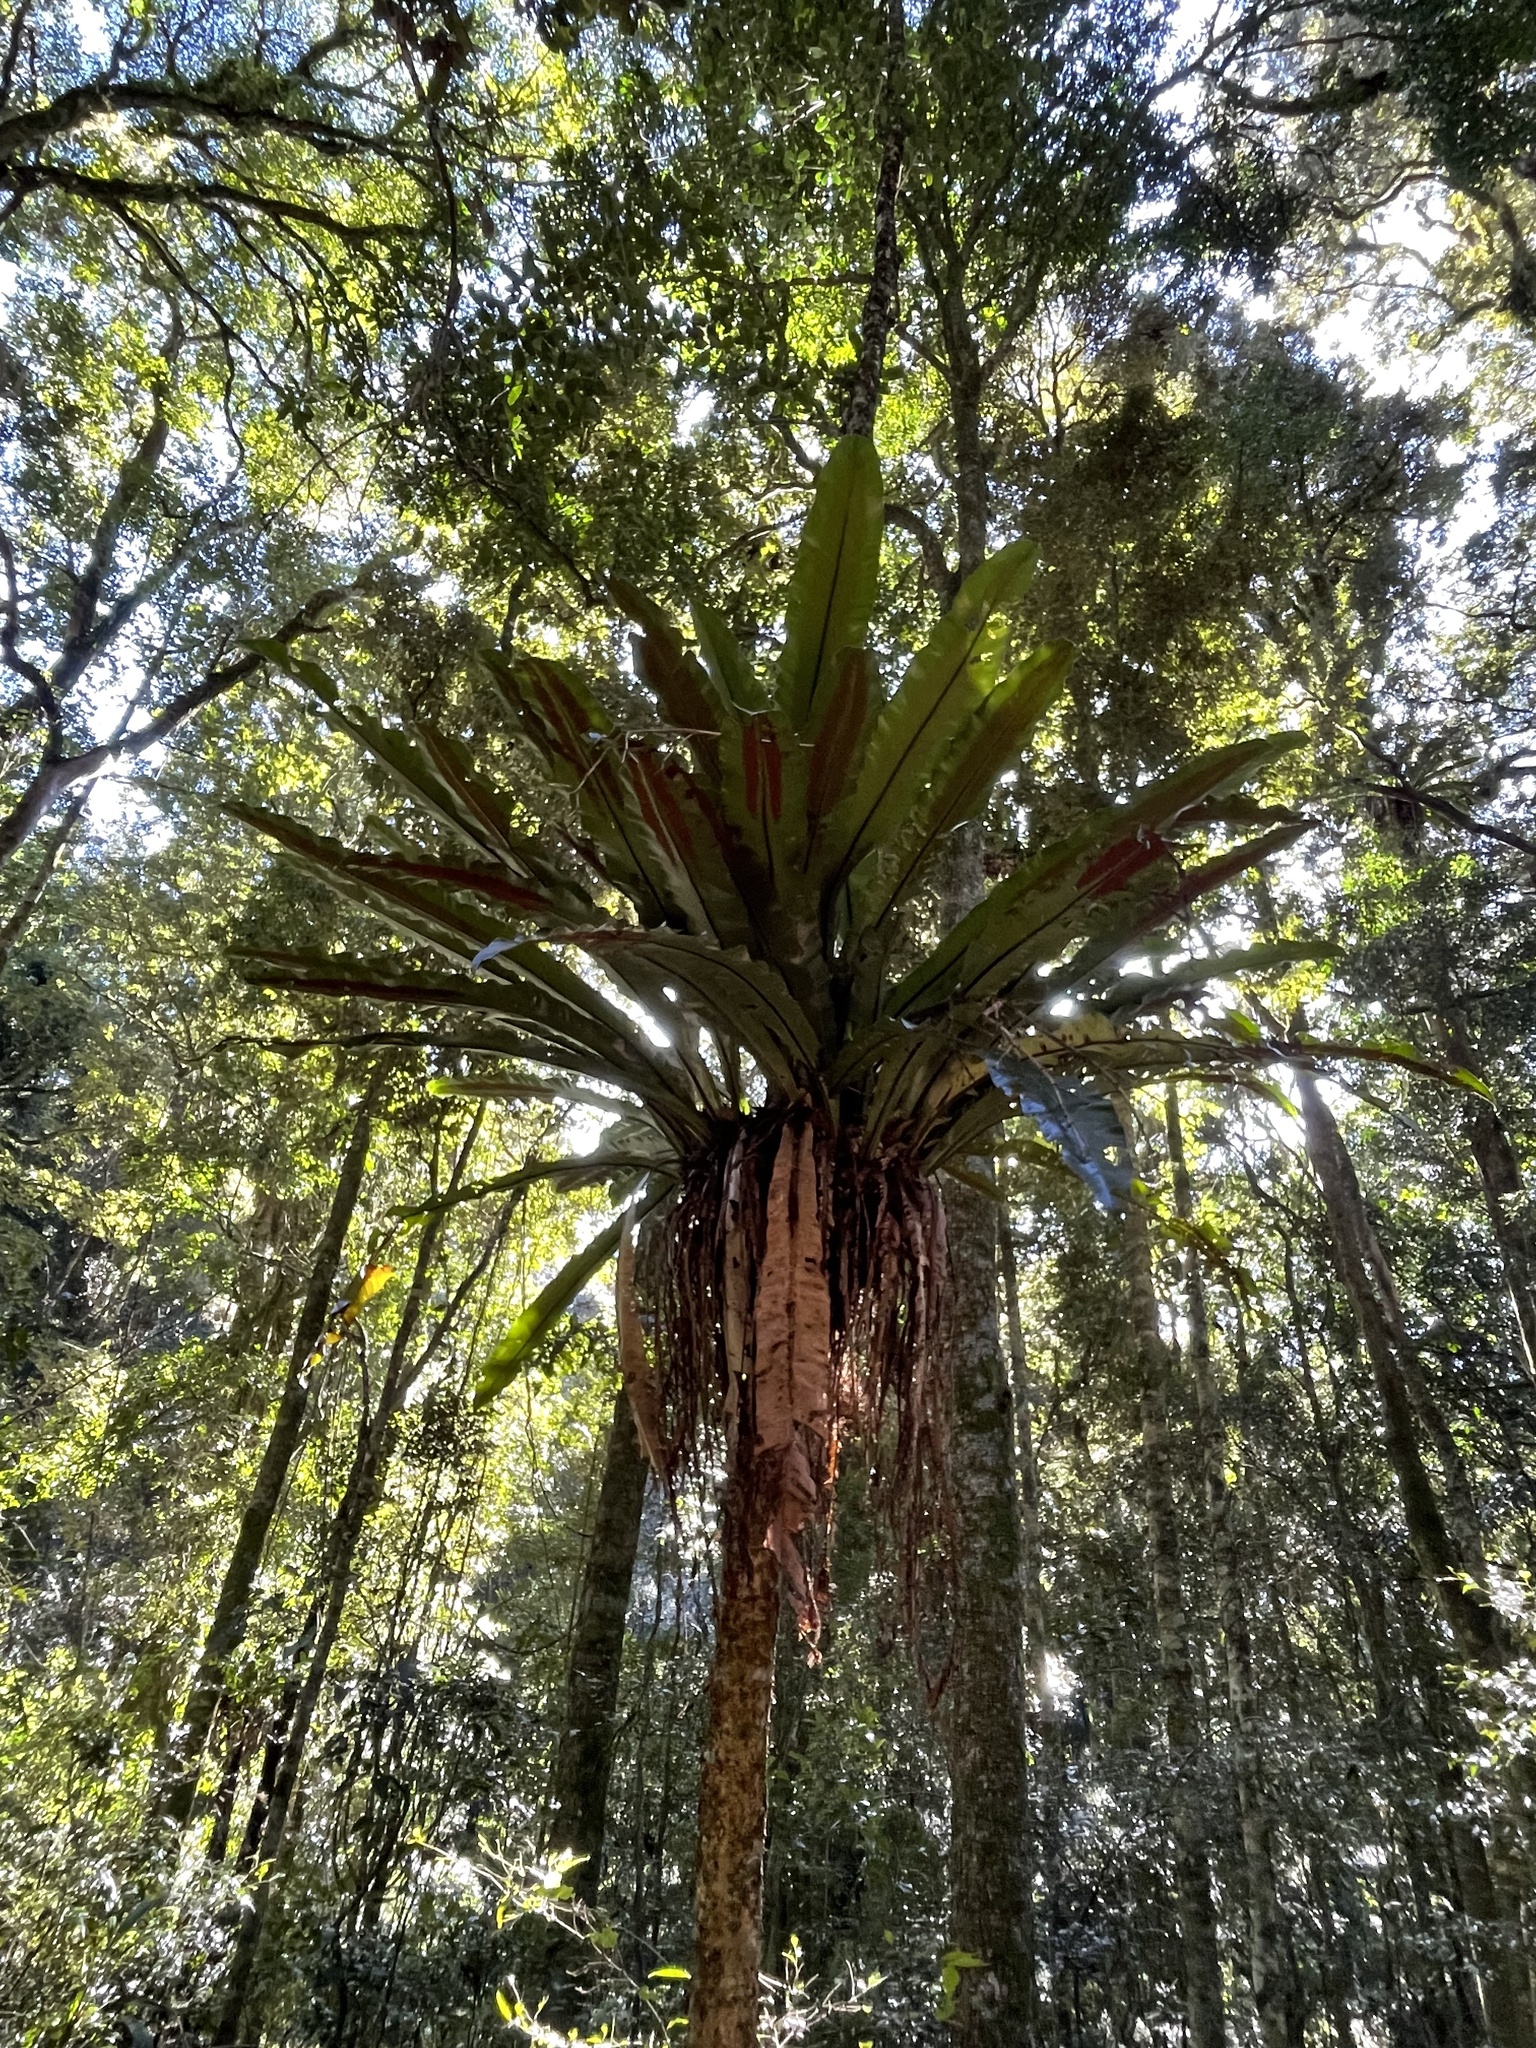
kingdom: Plantae
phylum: Tracheophyta
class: Polypodiopsida
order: Polypodiales
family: Aspleniaceae
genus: Asplenium
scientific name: Asplenium australasicum
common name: Bird's-nest fern
